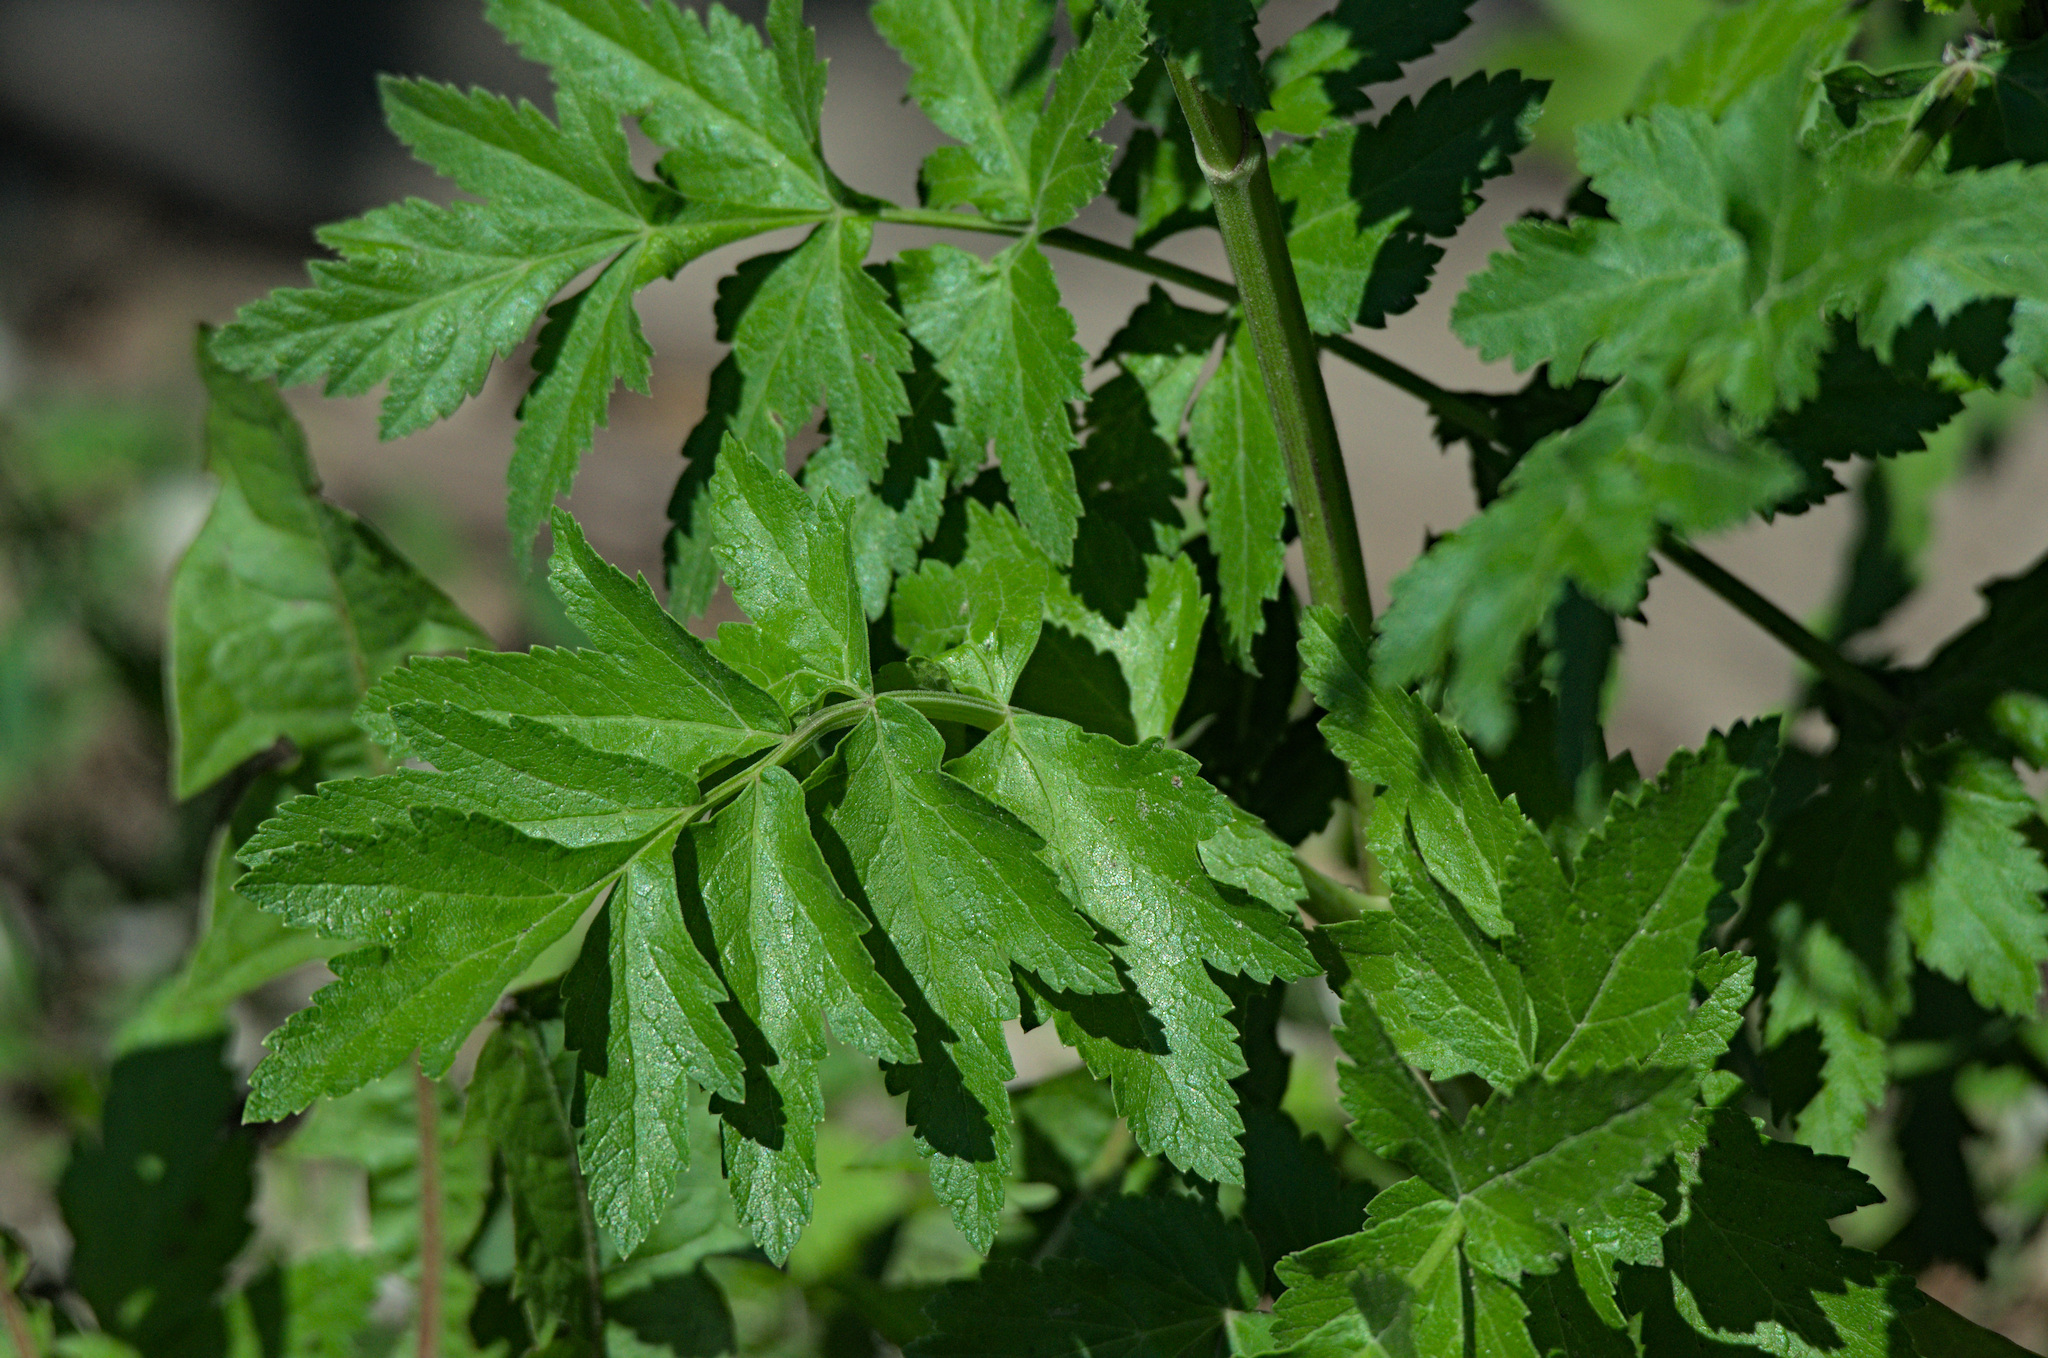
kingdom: Plantae
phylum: Tracheophyta
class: Magnoliopsida
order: Apiales
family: Apiaceae
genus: Pastinaca
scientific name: Pastinaca sativa
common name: Wild parsnip
